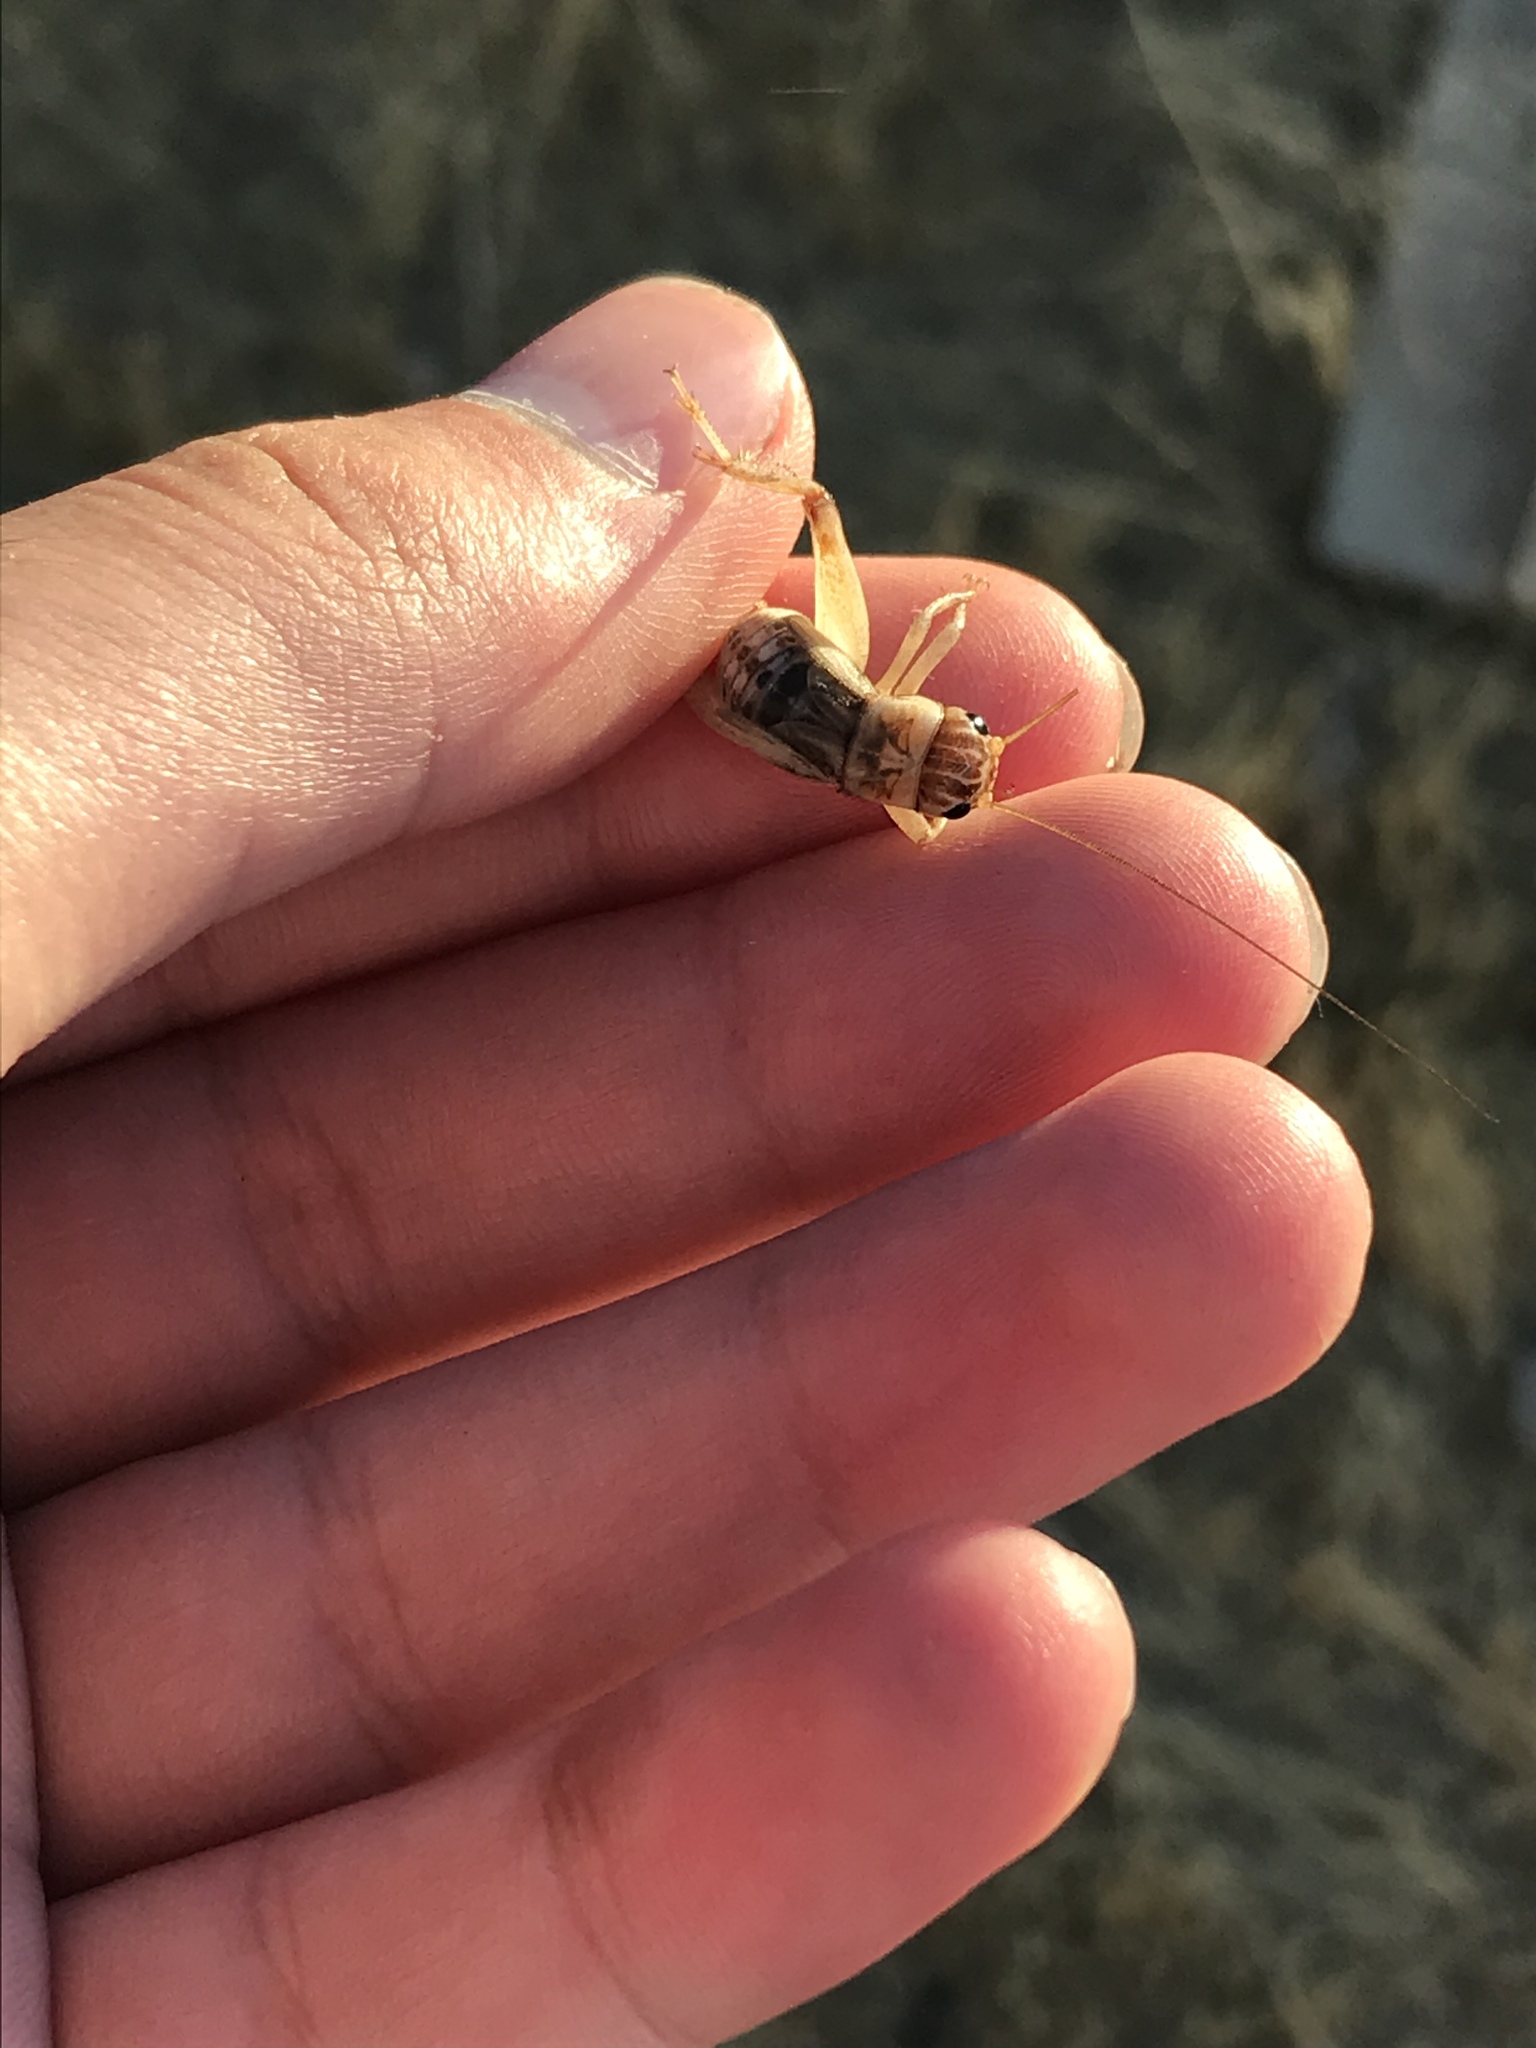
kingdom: Animalia
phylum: Arthropoda
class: Insecta
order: Orthoptera
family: Gryllidae
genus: Gryllodes
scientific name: Gryllodes sigillatus
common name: Tropical house cricket
